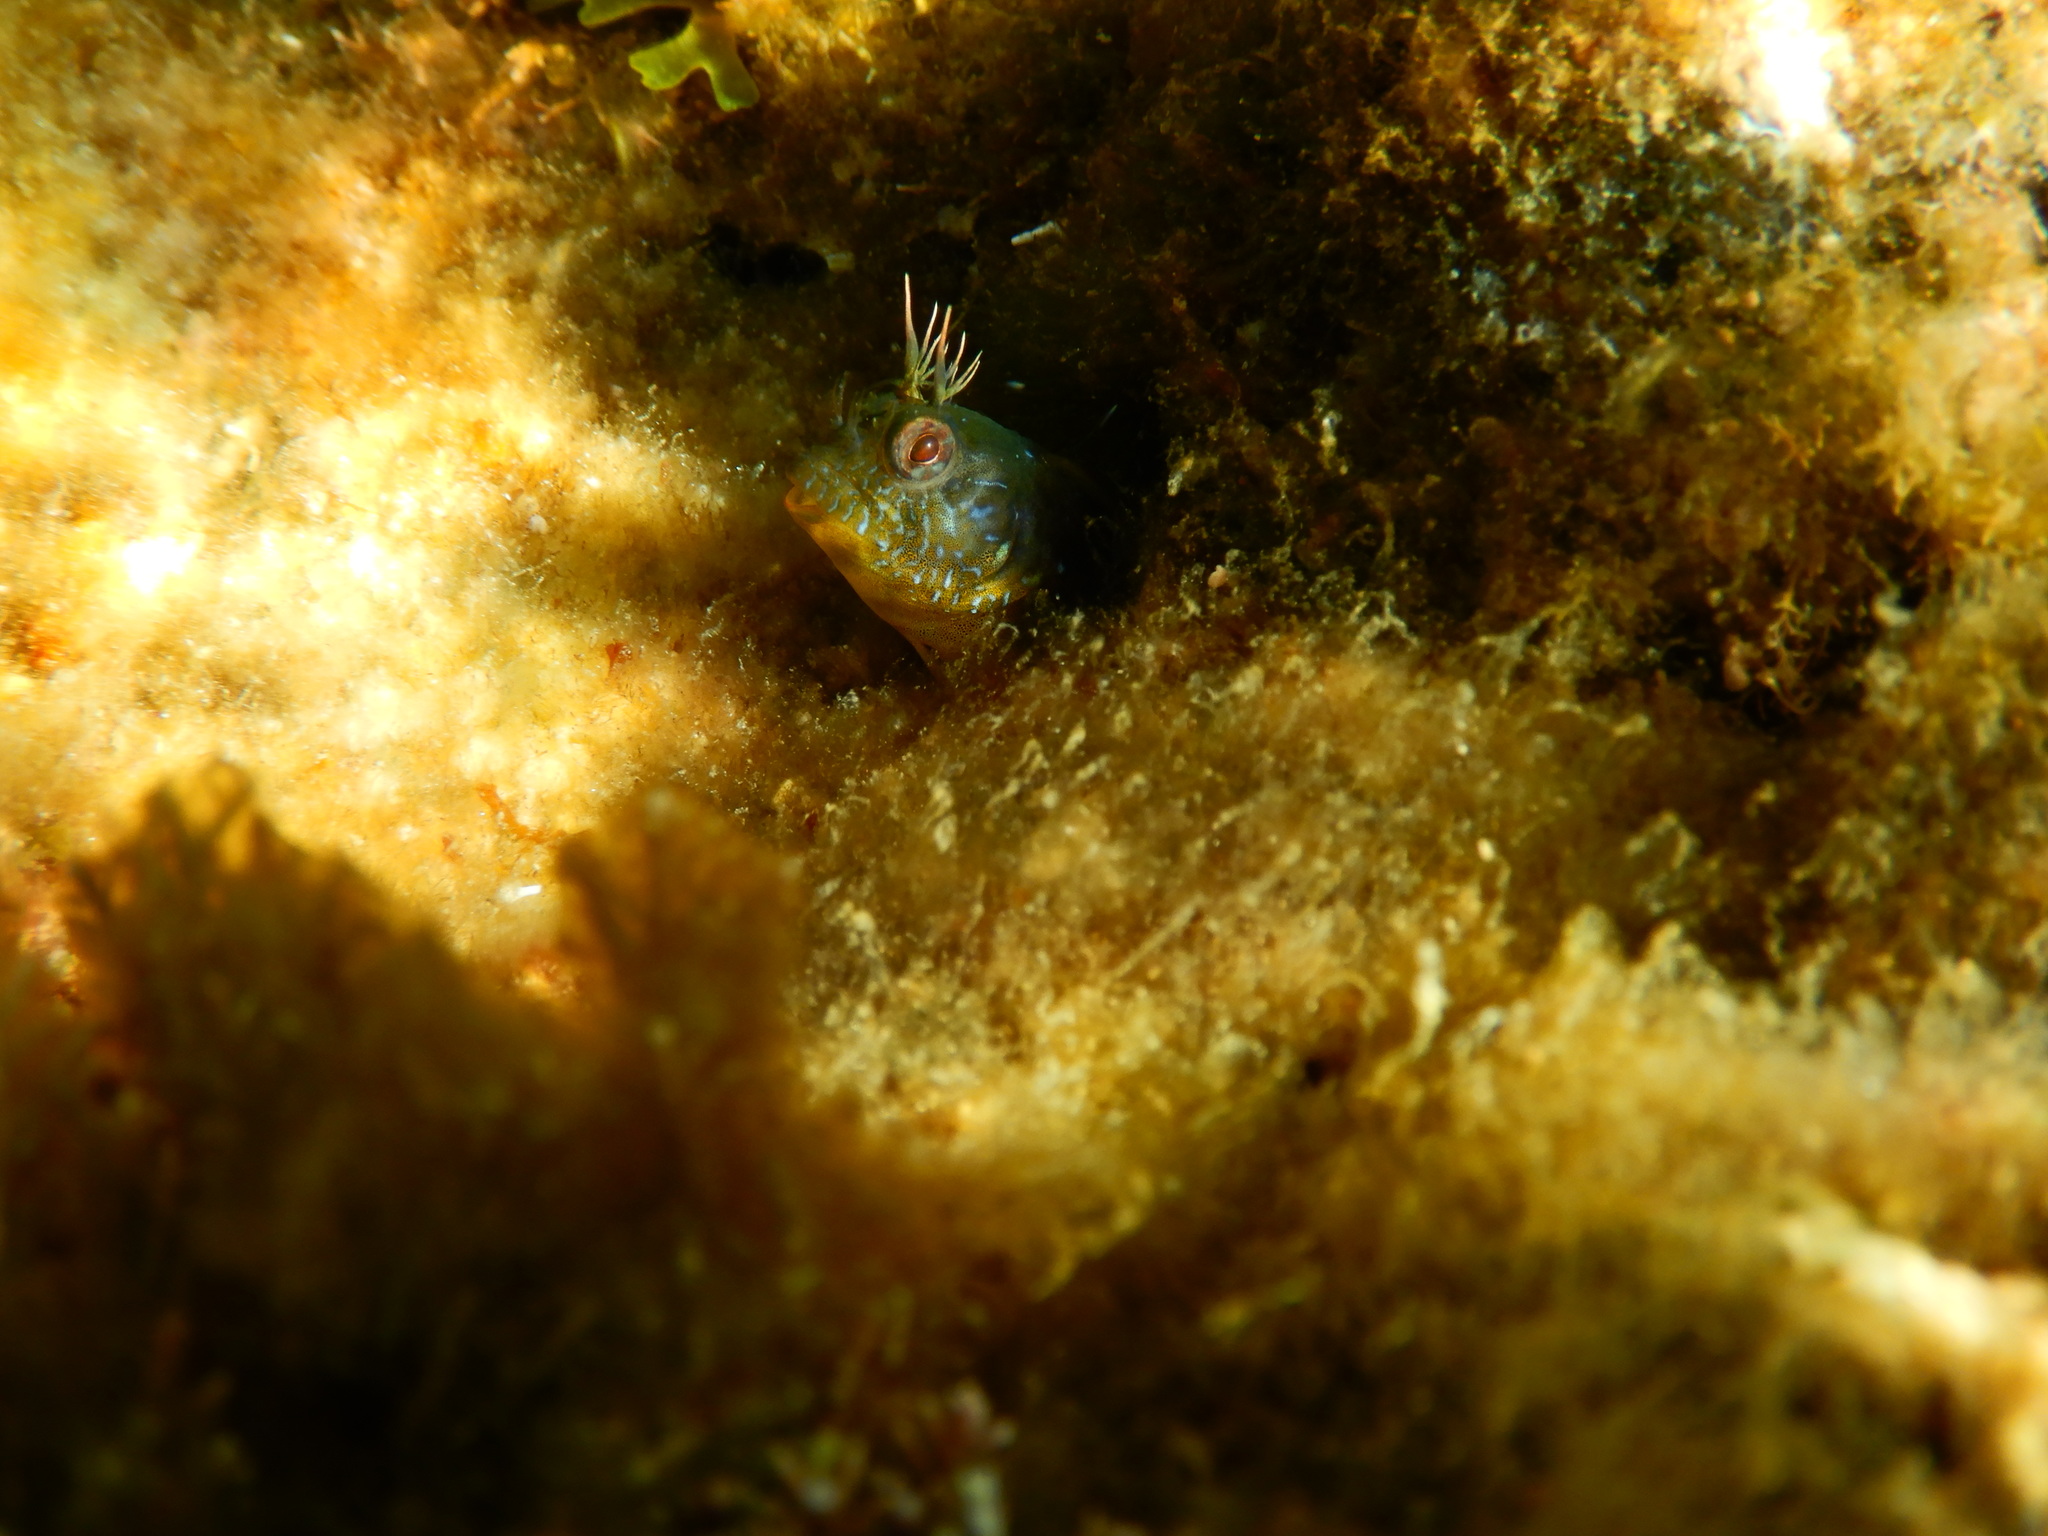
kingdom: Animalia
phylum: Chordata
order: Perciformes
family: Blenniidae
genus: Parablennius
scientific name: Parablennius incognitus
